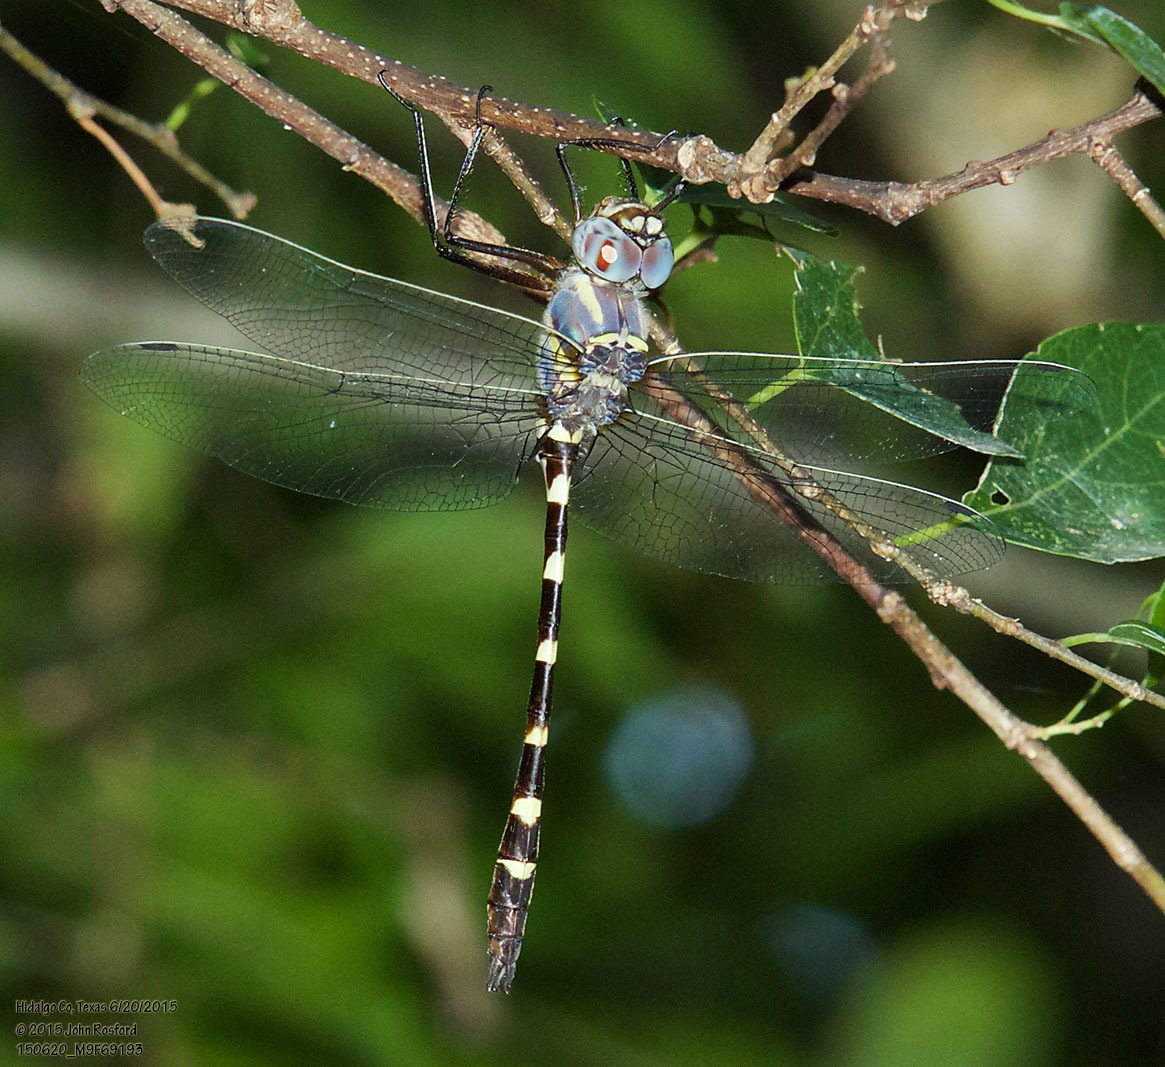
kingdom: Animalia
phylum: Arthropoda
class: Insecta
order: Odonata
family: Macromiidae
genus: Macromia
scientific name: Macromia annulata
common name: Bronzed river cruiser
